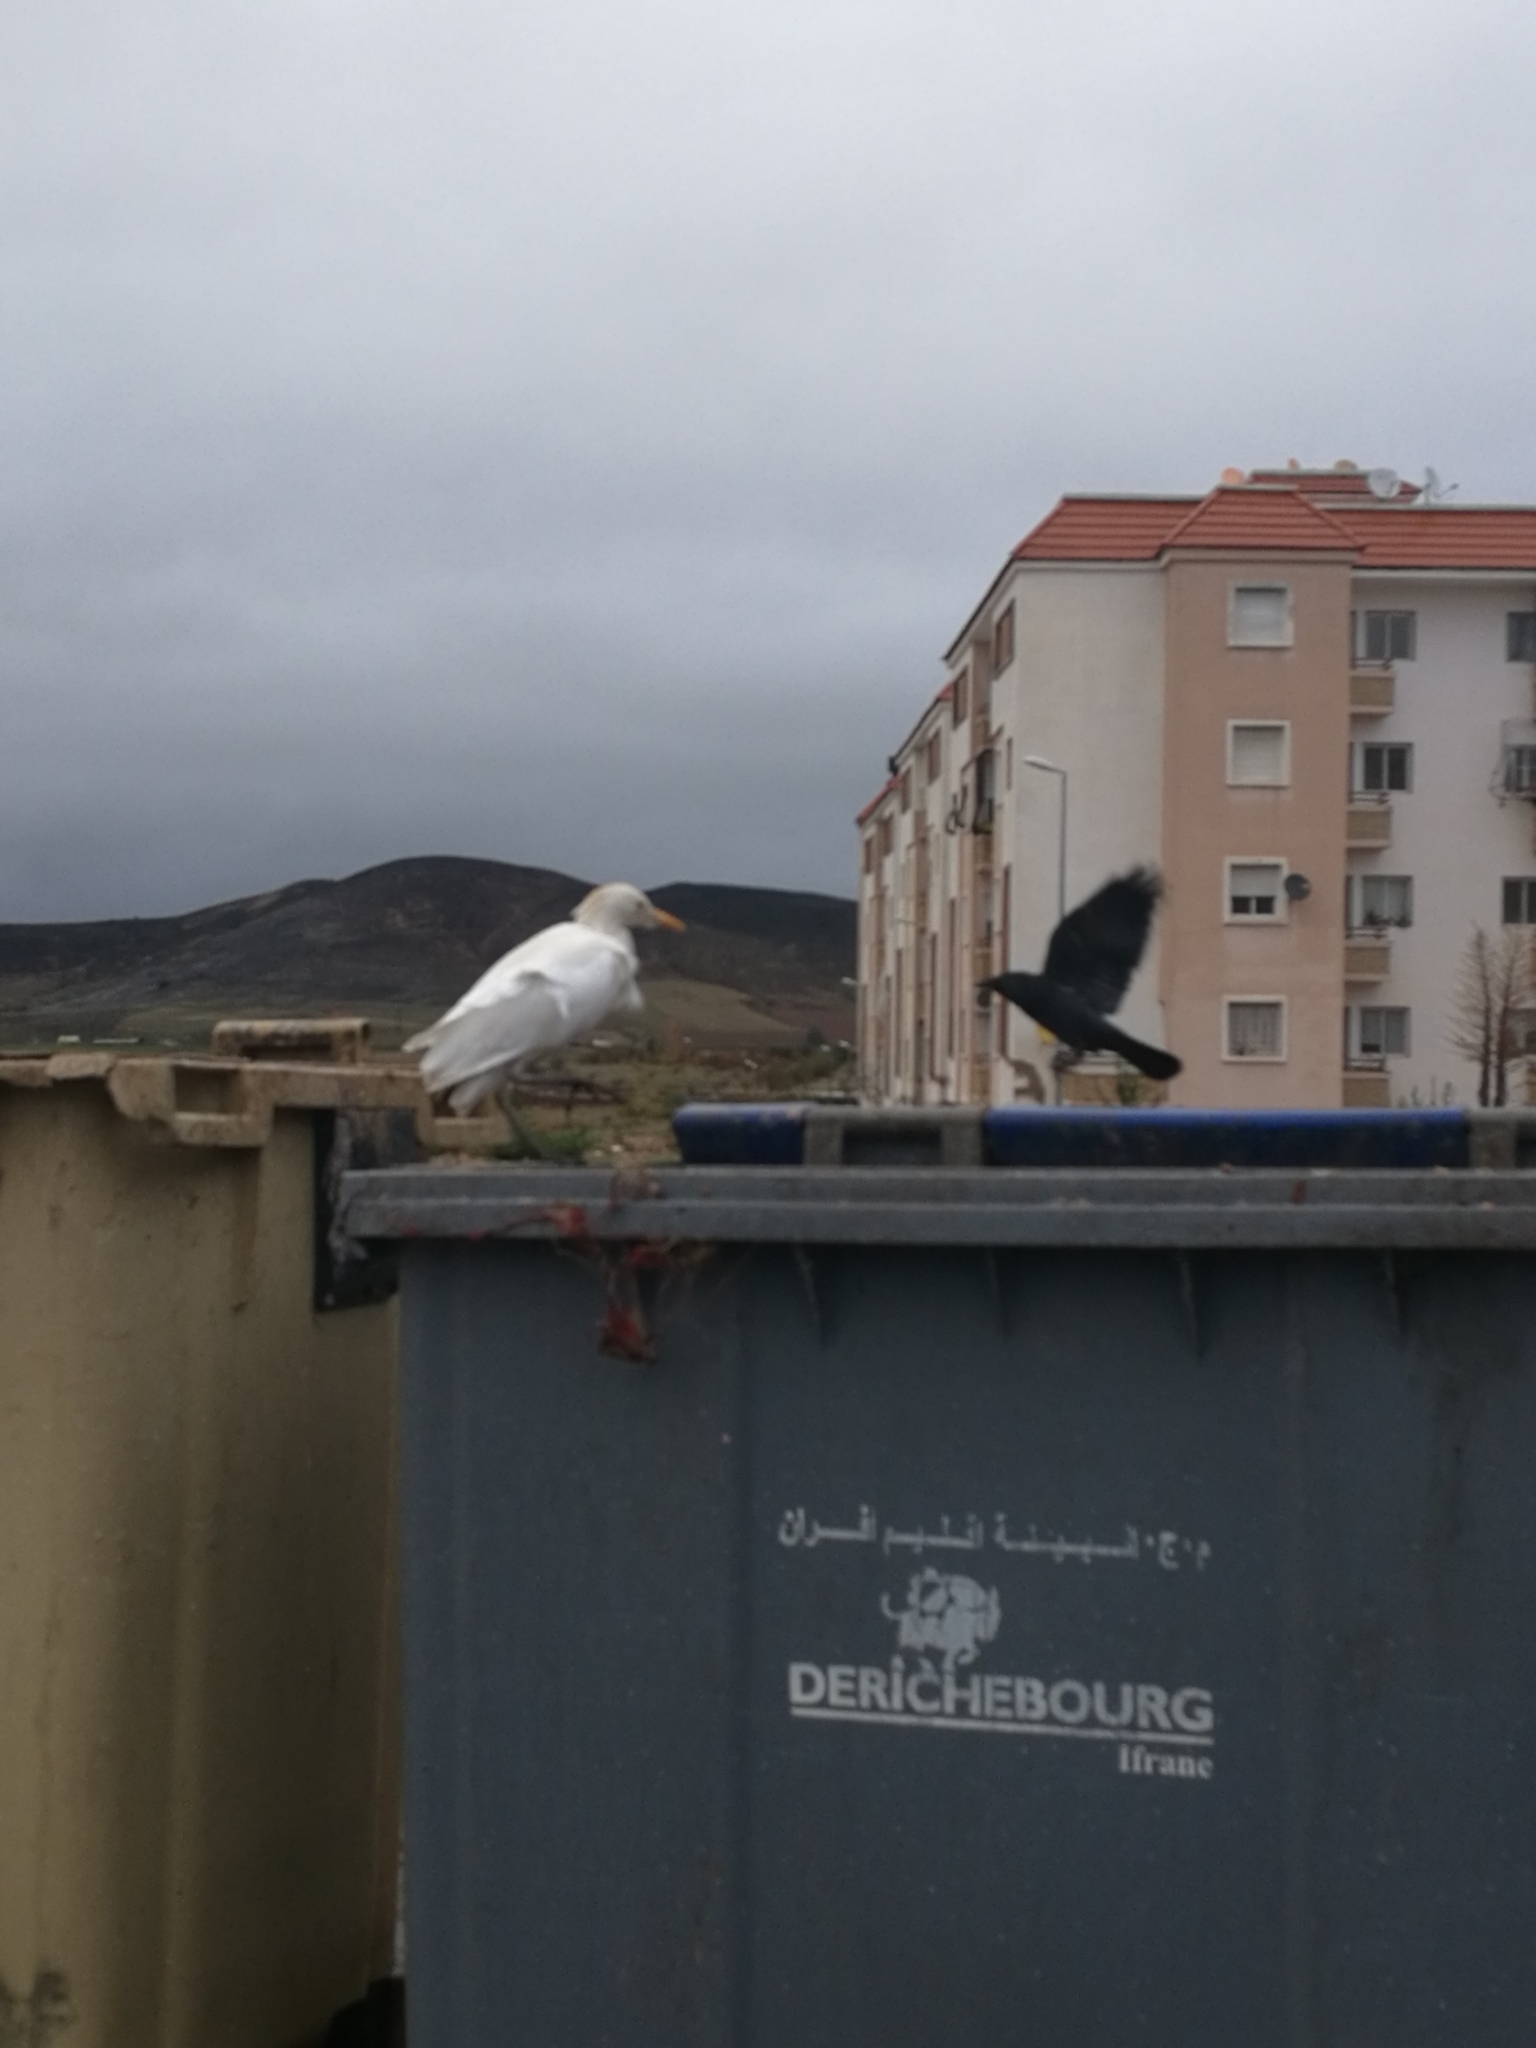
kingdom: Animalia
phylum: Chordata
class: Aves
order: Pelecaniformes
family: Ardeidae
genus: Bubulcus
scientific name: Bubulcus ibis
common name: Cattle egret
